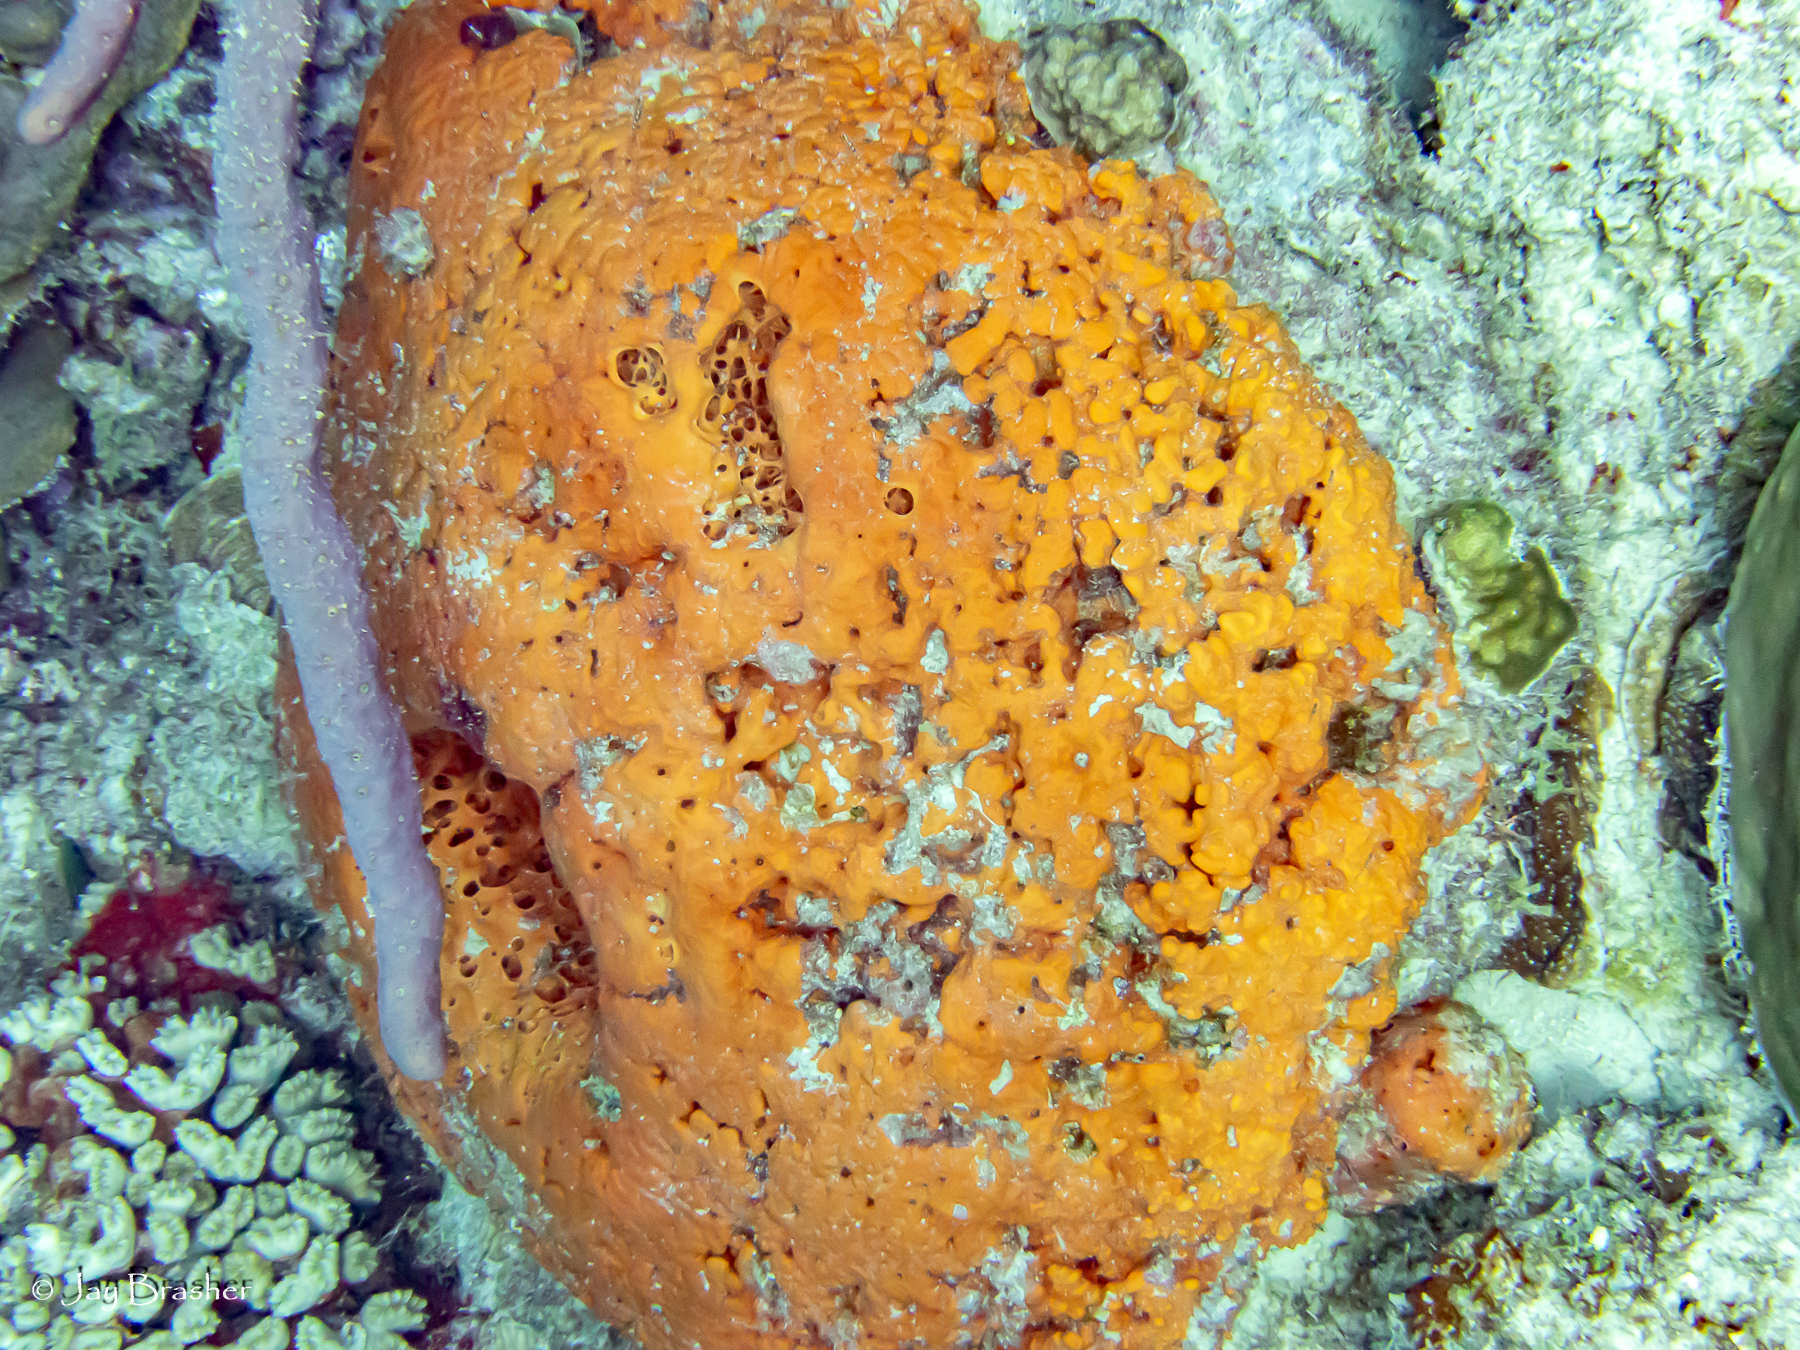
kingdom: Animalia
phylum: Cnidaria
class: Anthozoa
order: Scleractinia
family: Meandrinidae
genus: Eusmilia
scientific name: Eusmilia fastigiata
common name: Smooth flower coral
